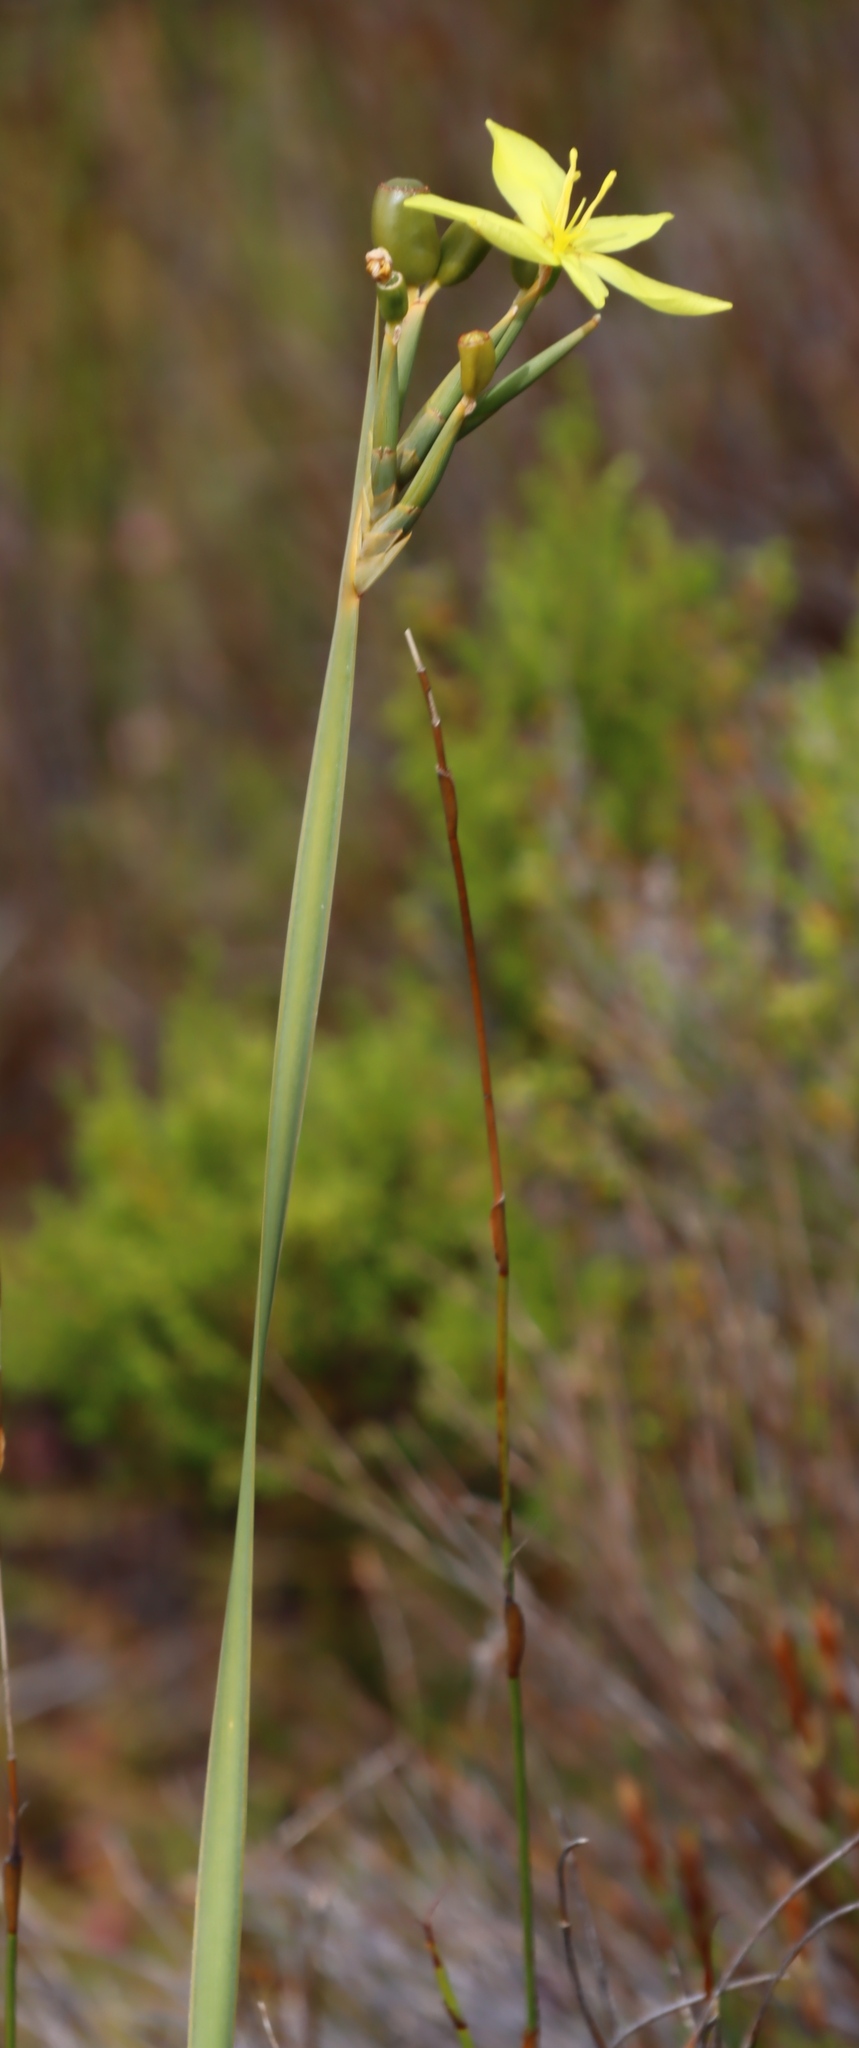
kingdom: Plantae
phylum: Tracheophyta
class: Liliopsida
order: Asparagales
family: Iridaceae
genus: Bobartia
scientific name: Bobartia gladiata
